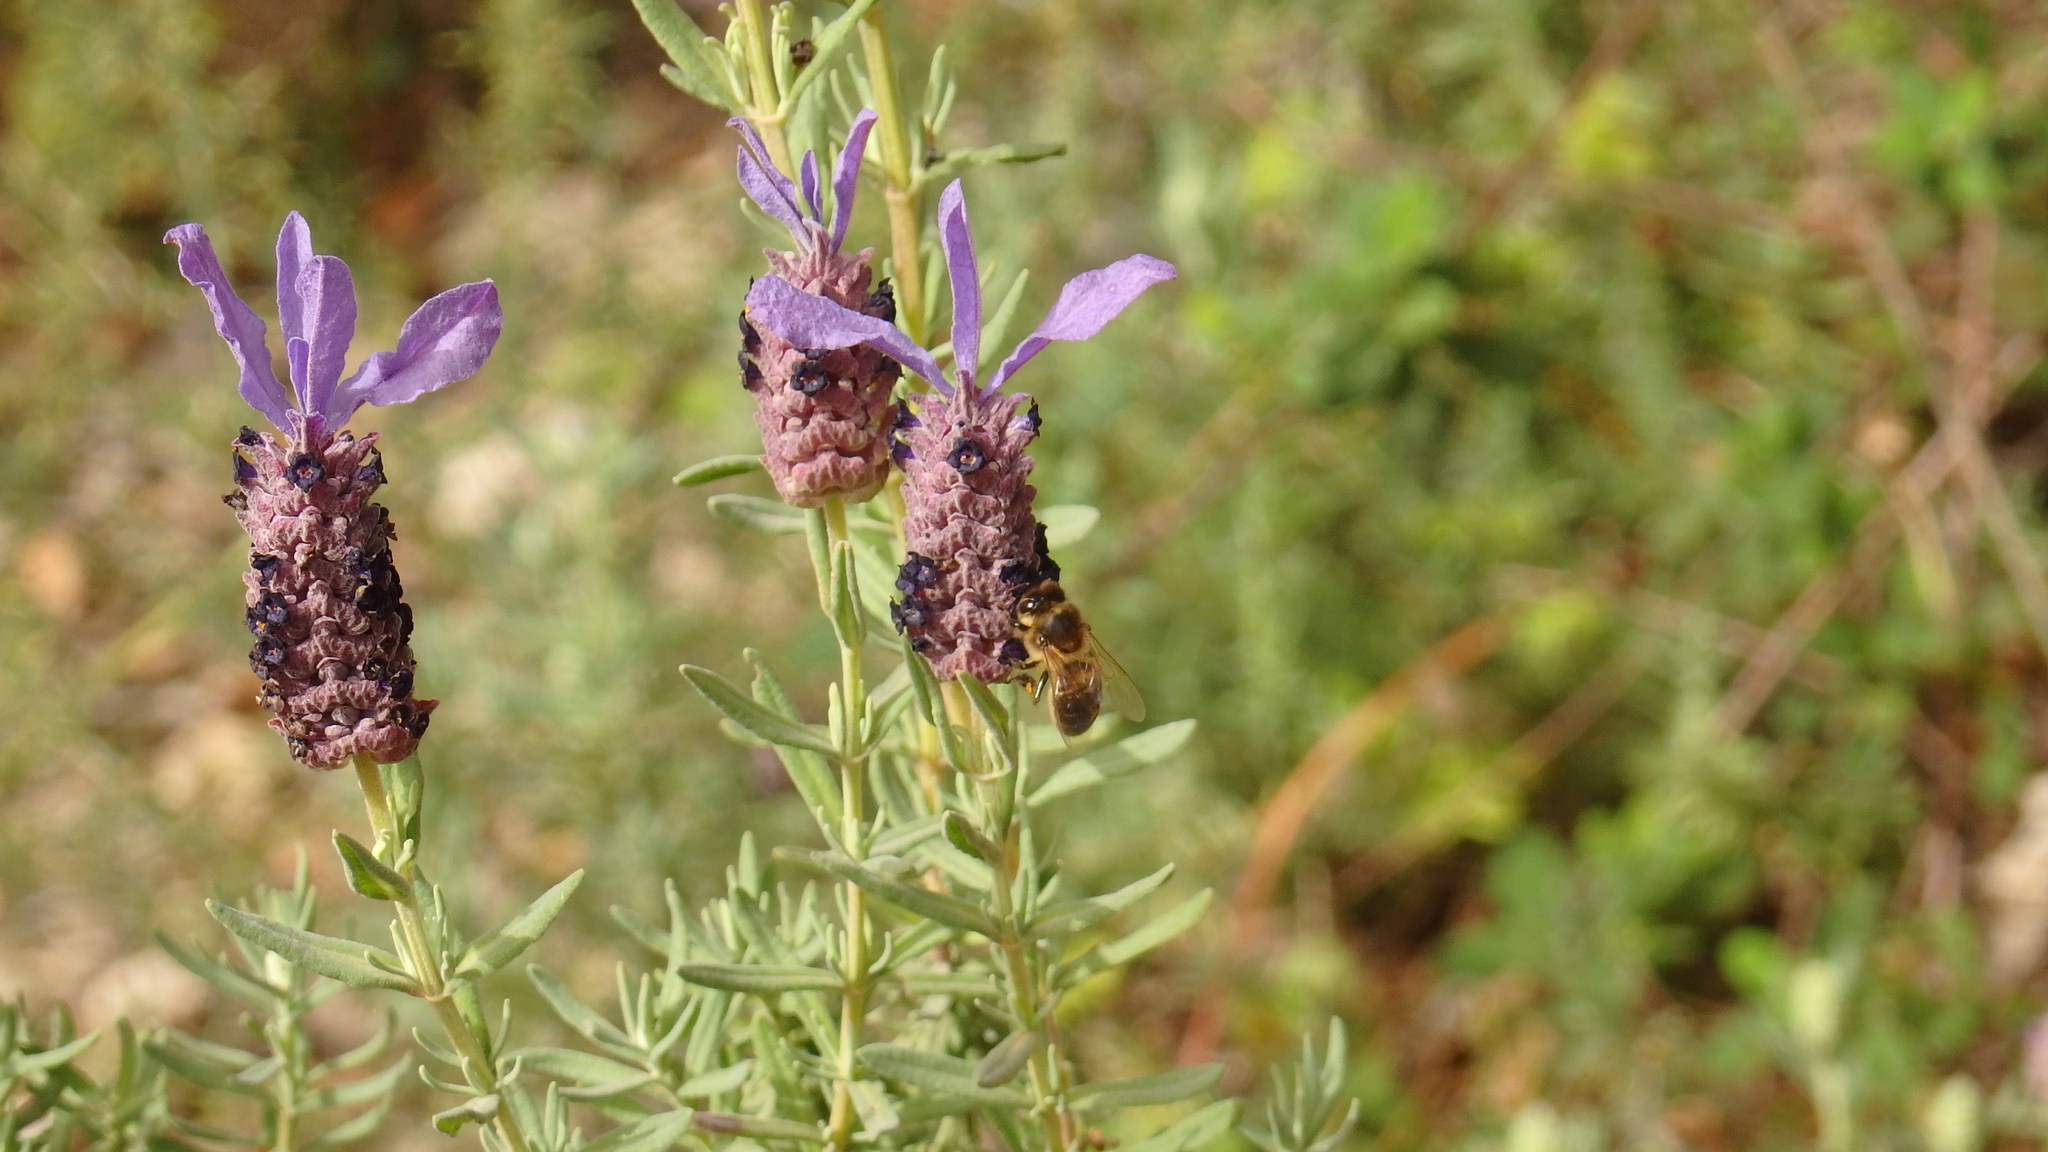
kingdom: Animalia
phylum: Arthropoda
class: Insecta
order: Hymenoptera
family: Apidae
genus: Apis
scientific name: Apis mellifera
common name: Honey bee
